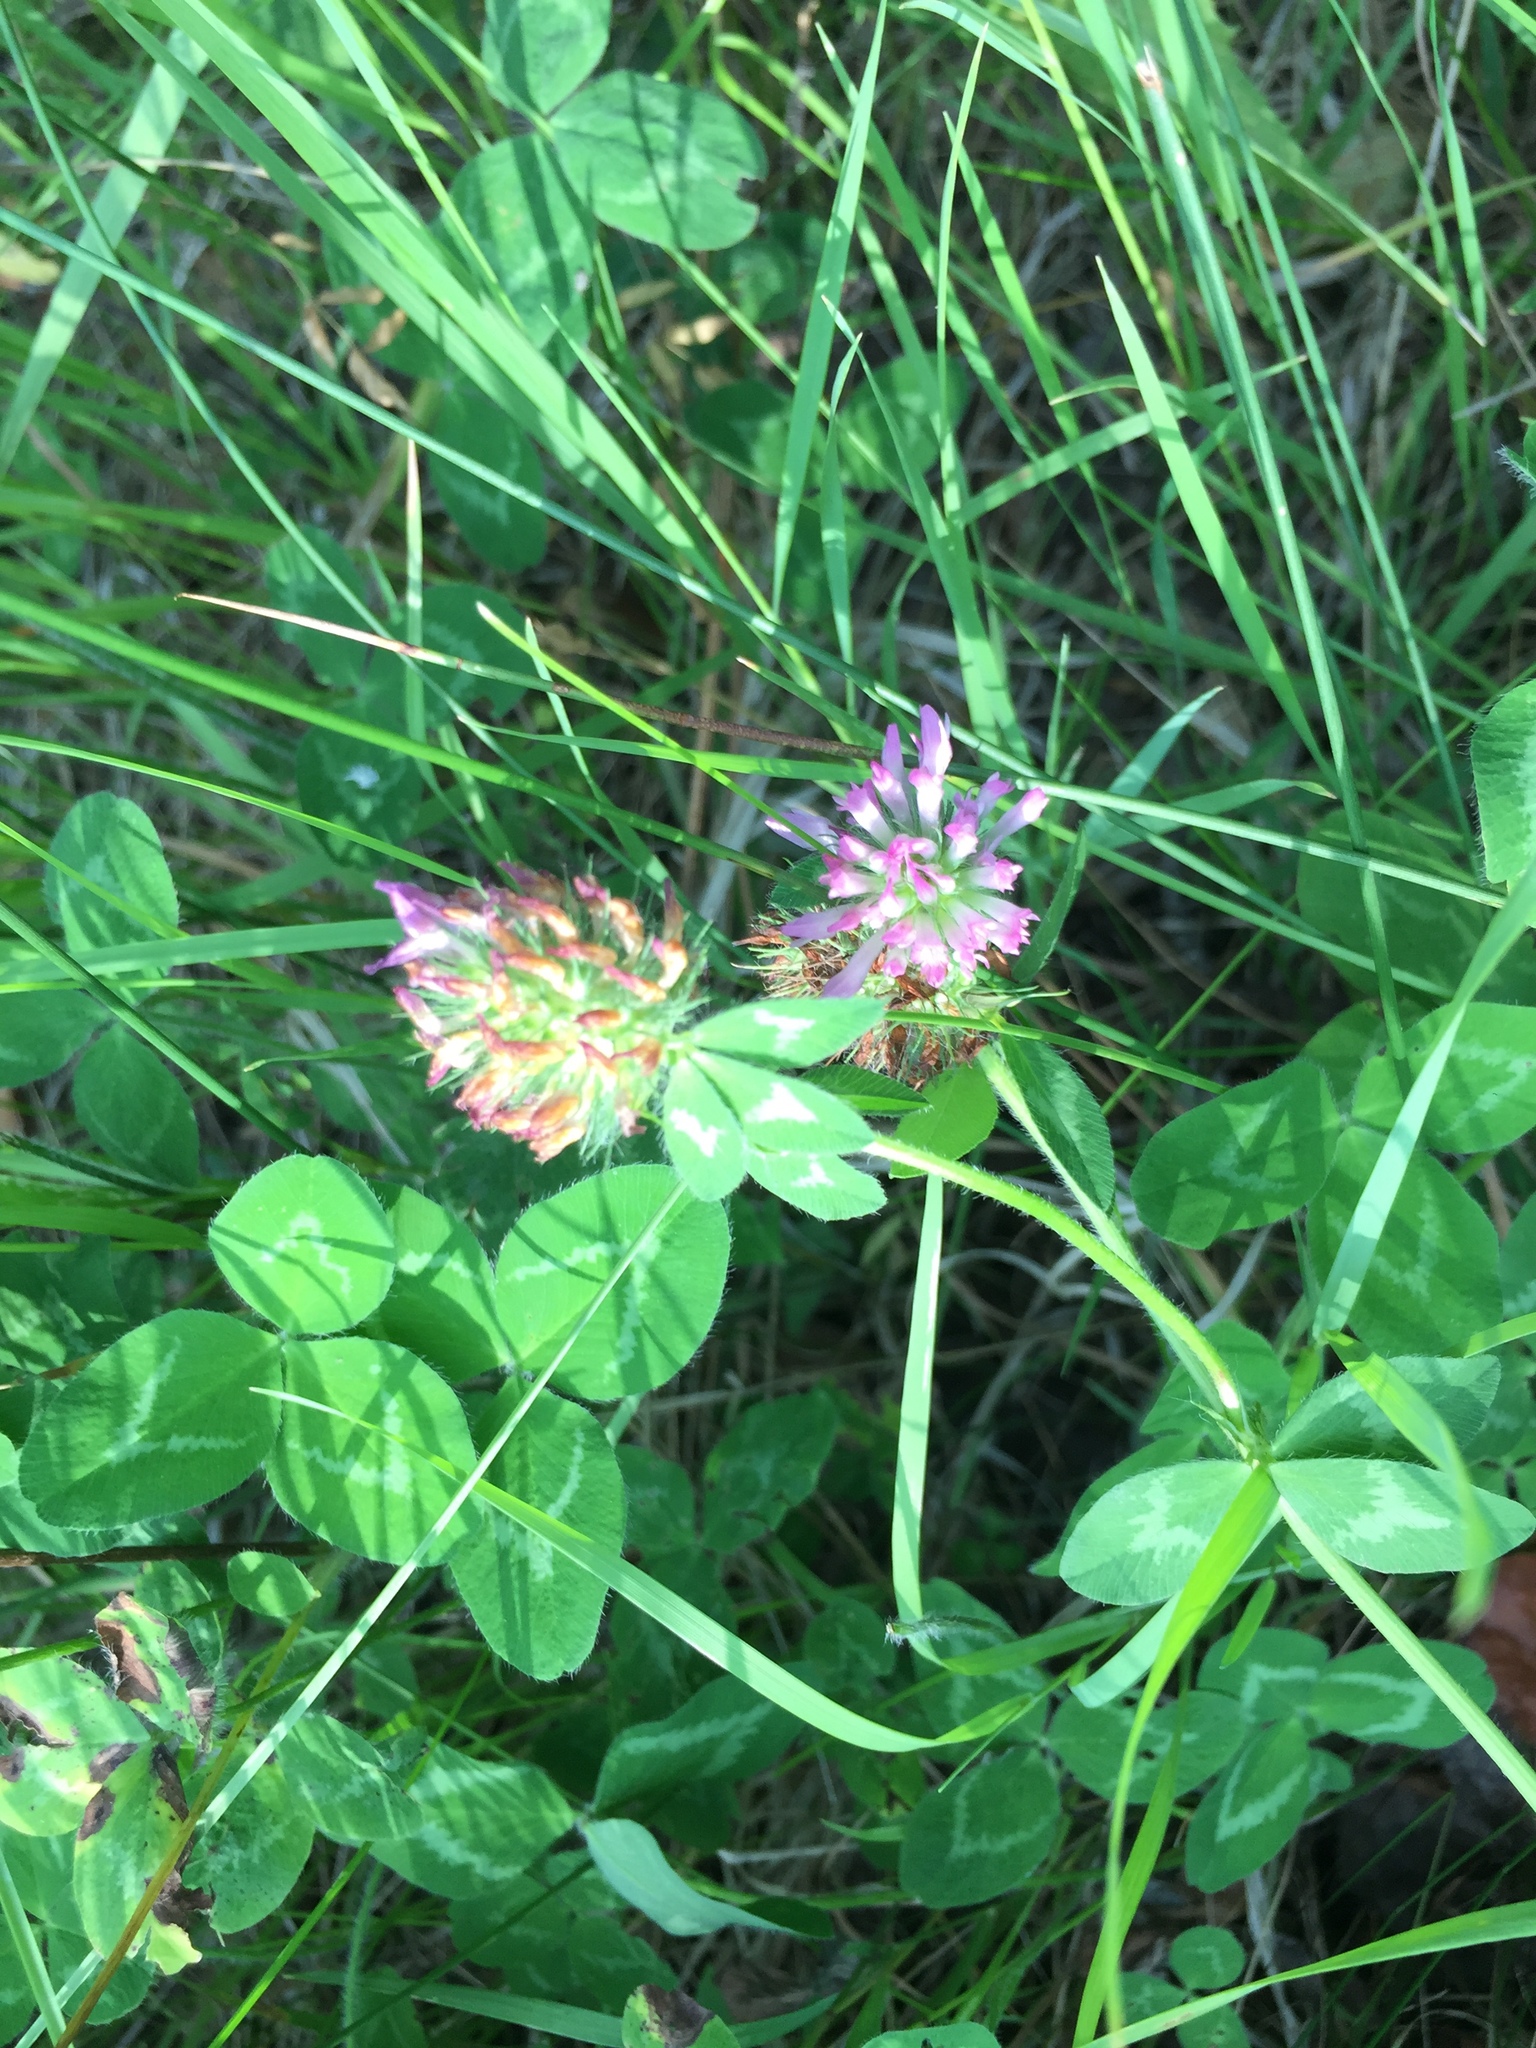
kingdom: Plantae
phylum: Tracheophyta
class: Magnoliopsida
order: Fabales
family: Fabaceae
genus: Trifolium
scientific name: Trifolium pratense
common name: Red clover
